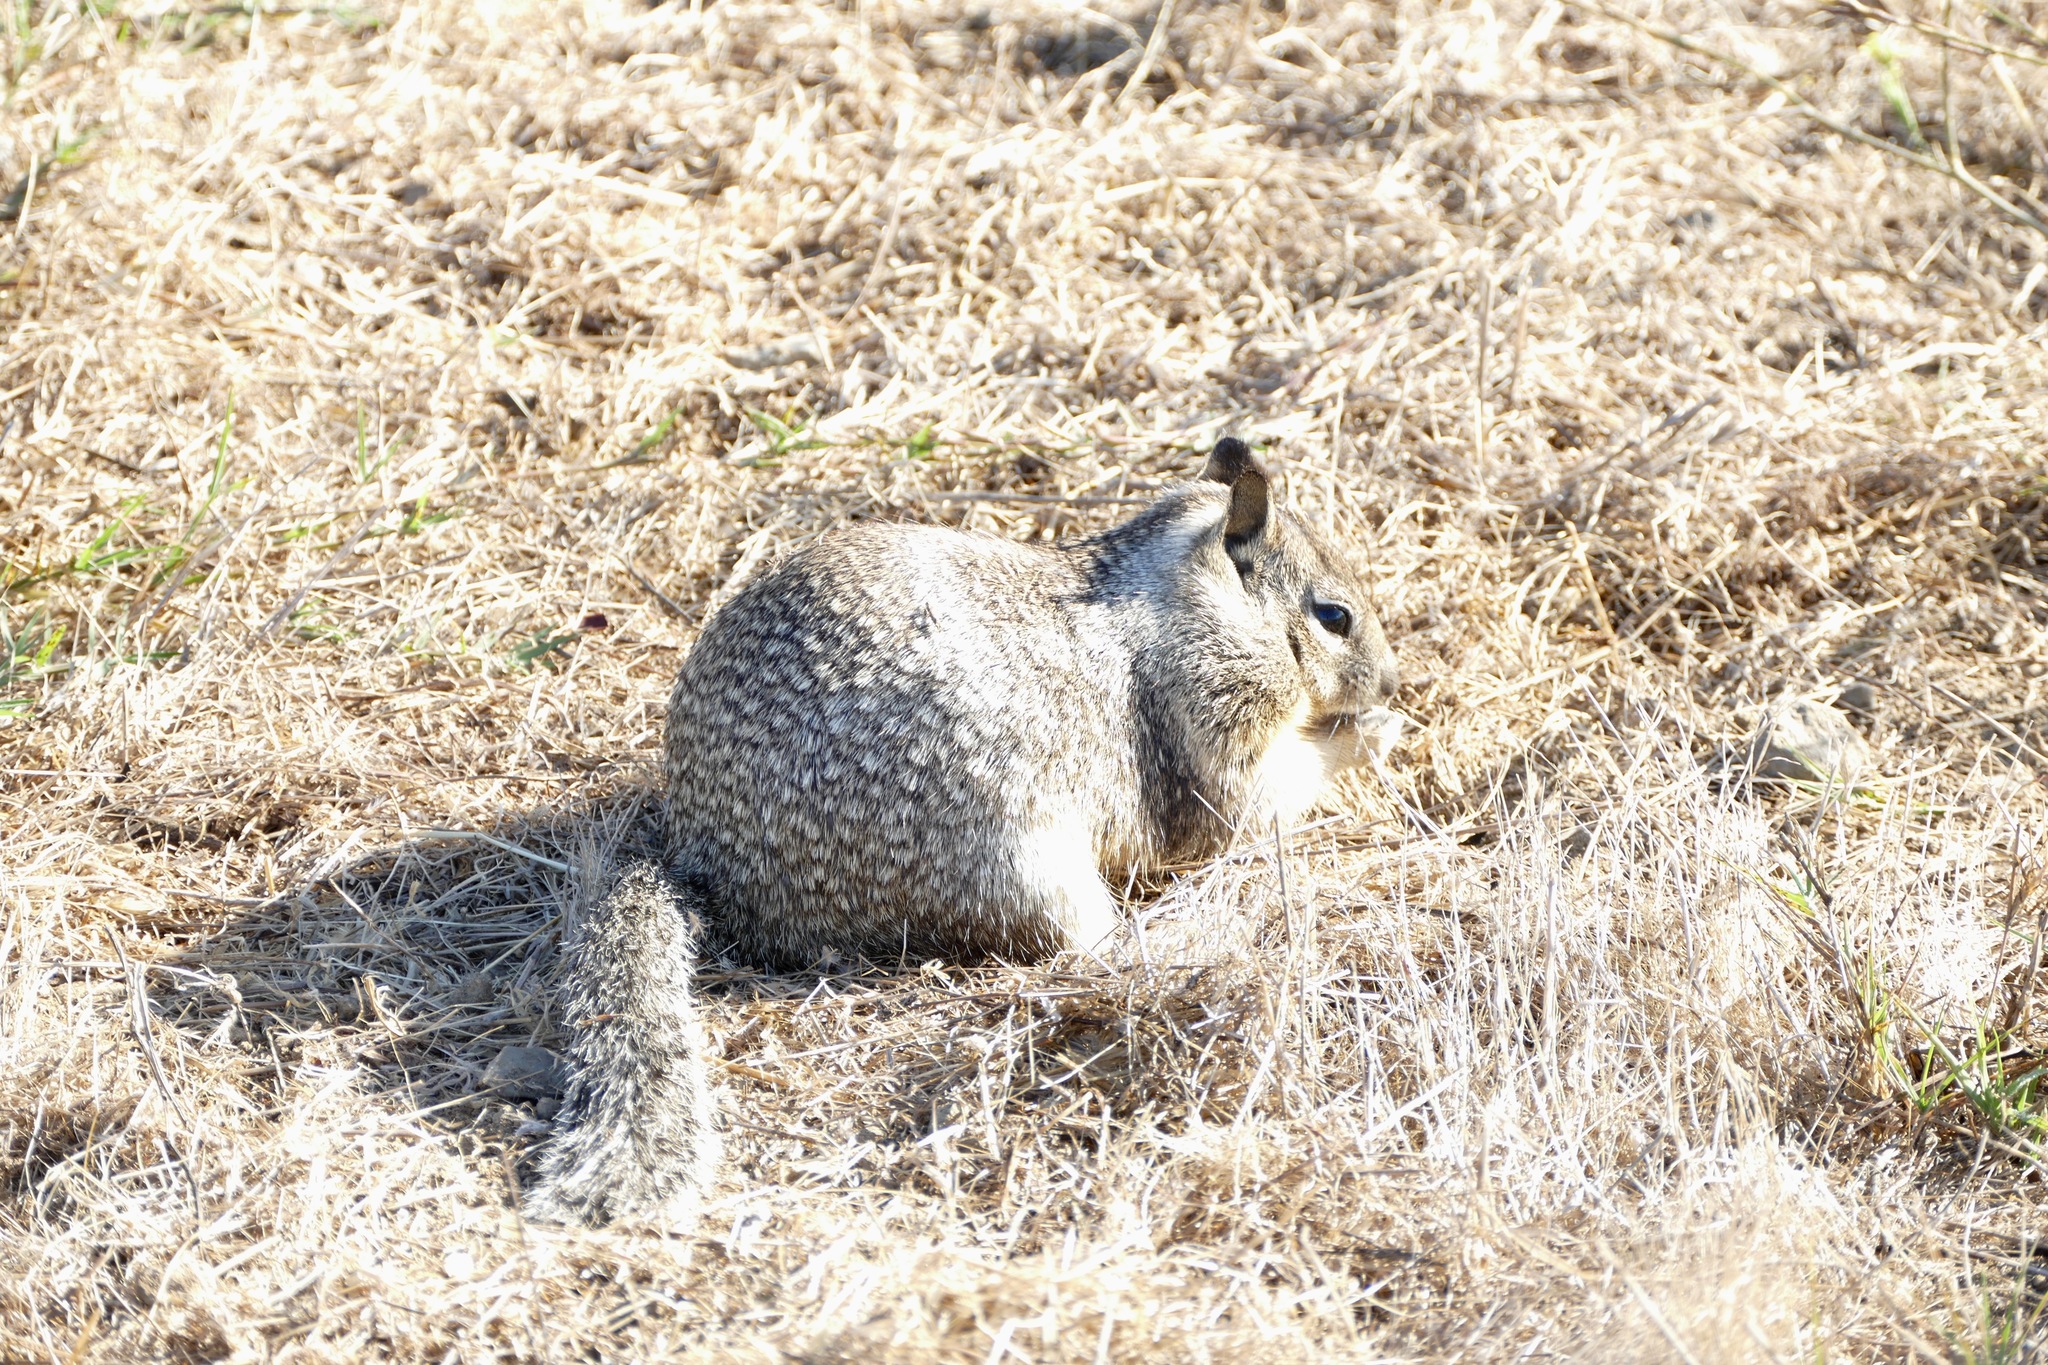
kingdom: Animalia
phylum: Chordata
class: Mammalia
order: Rodentia
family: Sciuridae
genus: Otospermophilus
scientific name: Otospermophilus beecheyi
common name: California ground squirrel
